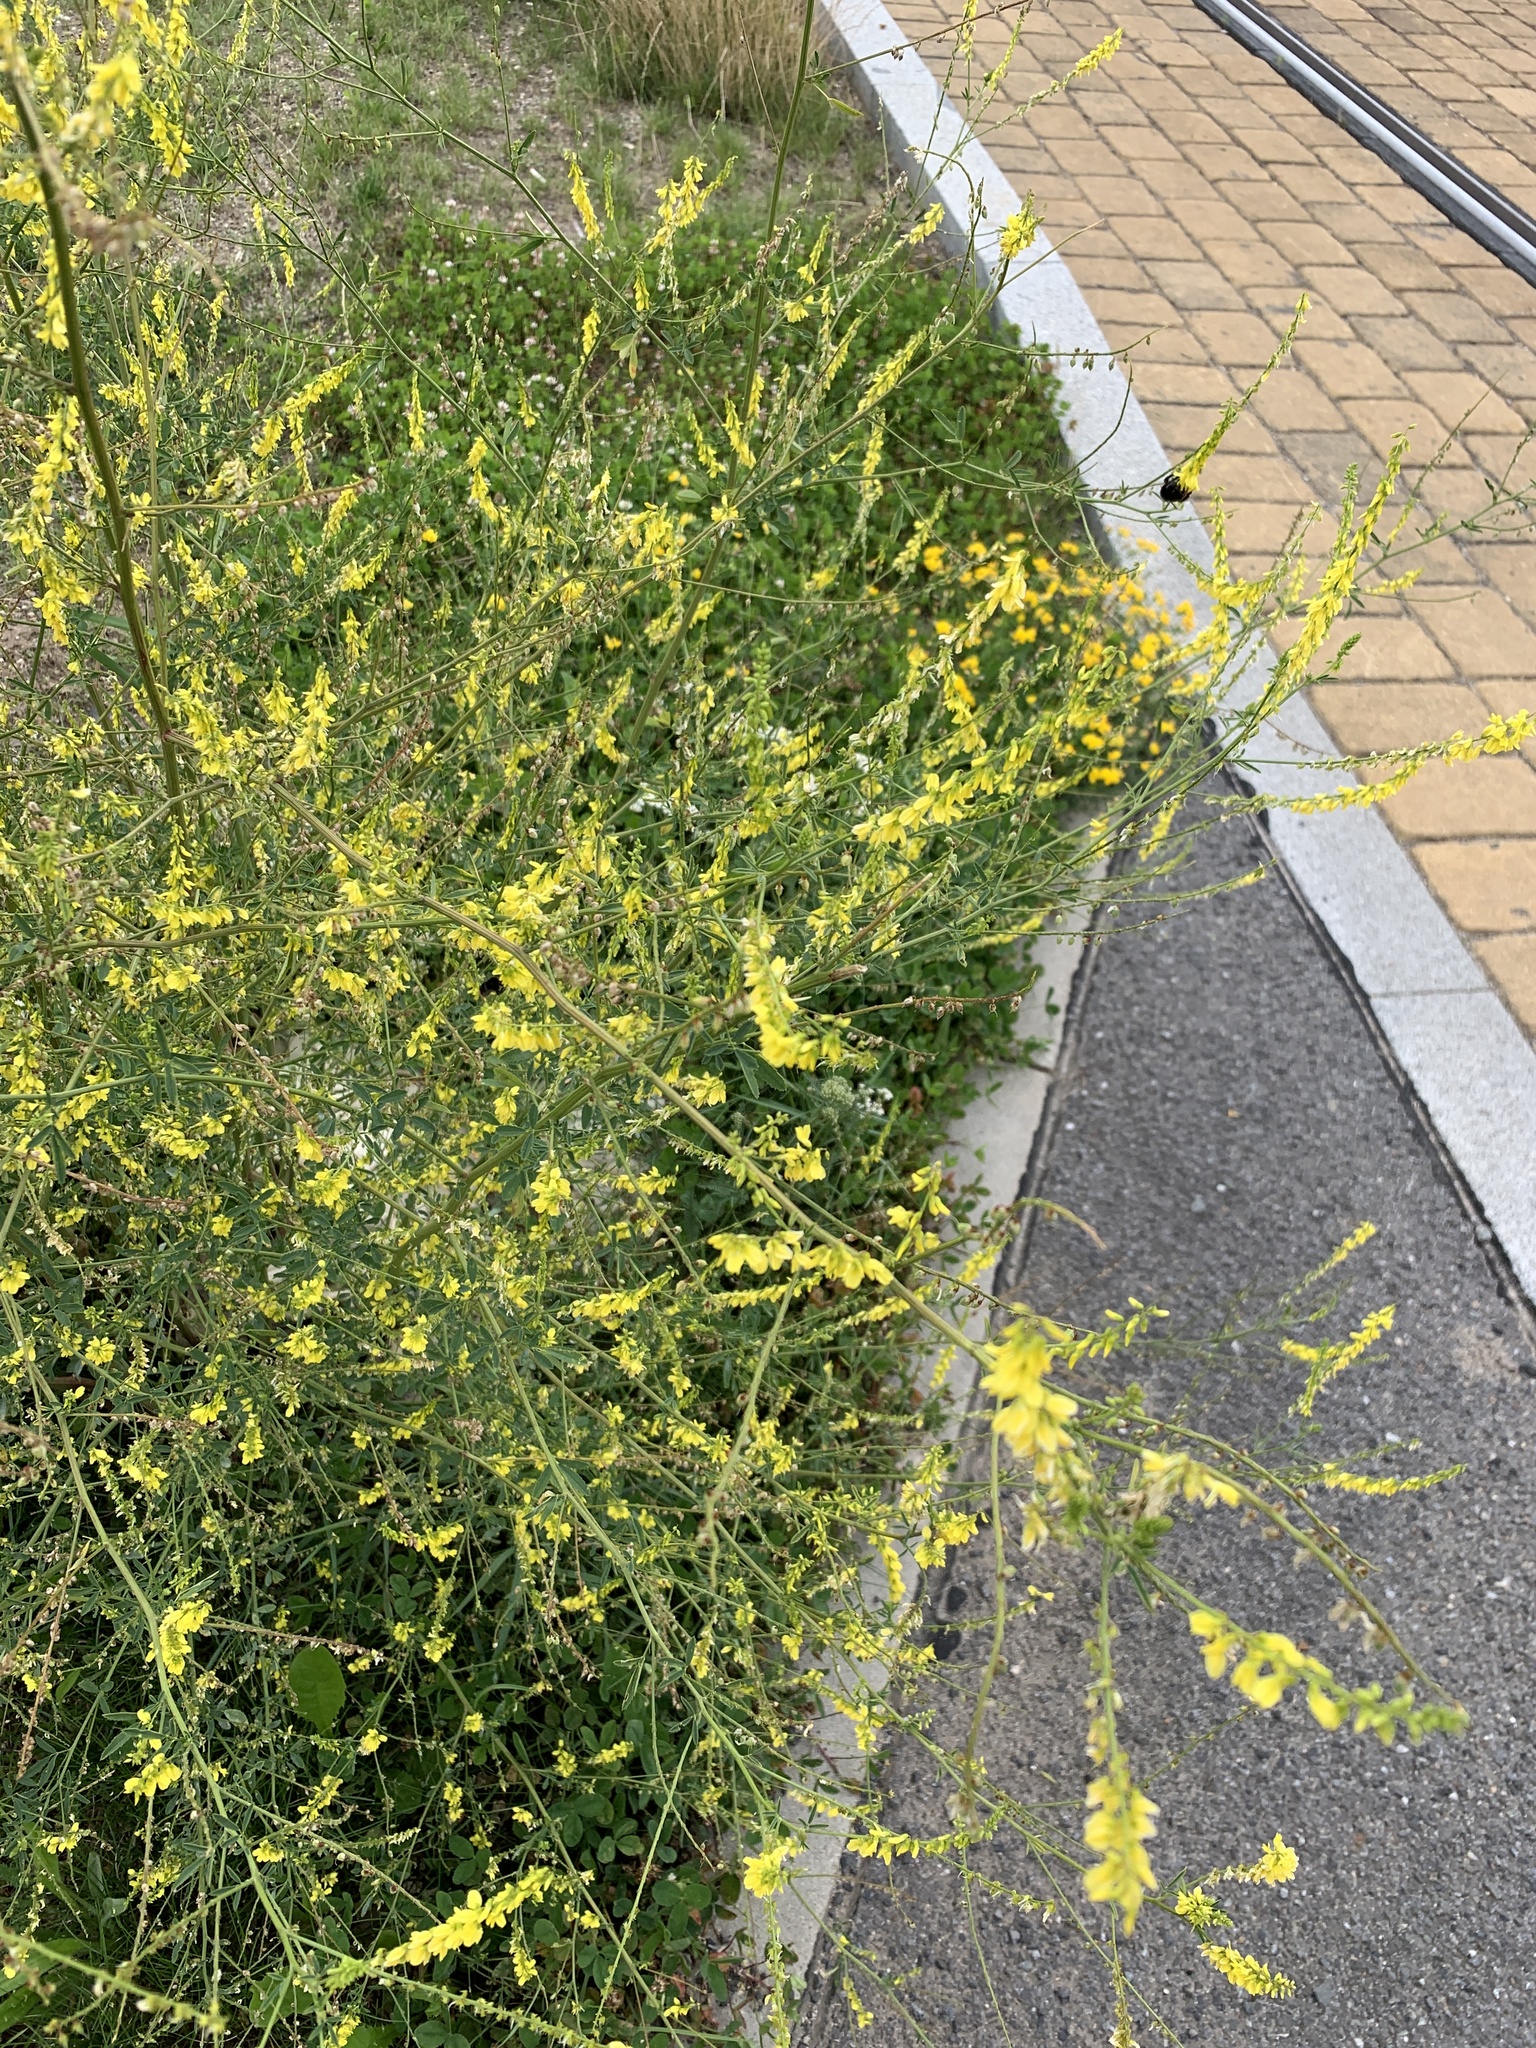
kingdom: Plantae
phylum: Tracheophyta
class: Magnoliopsida
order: Fabales
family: Fabaceae
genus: Melilotus
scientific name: Melilotus officinalis
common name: Sweetclover
